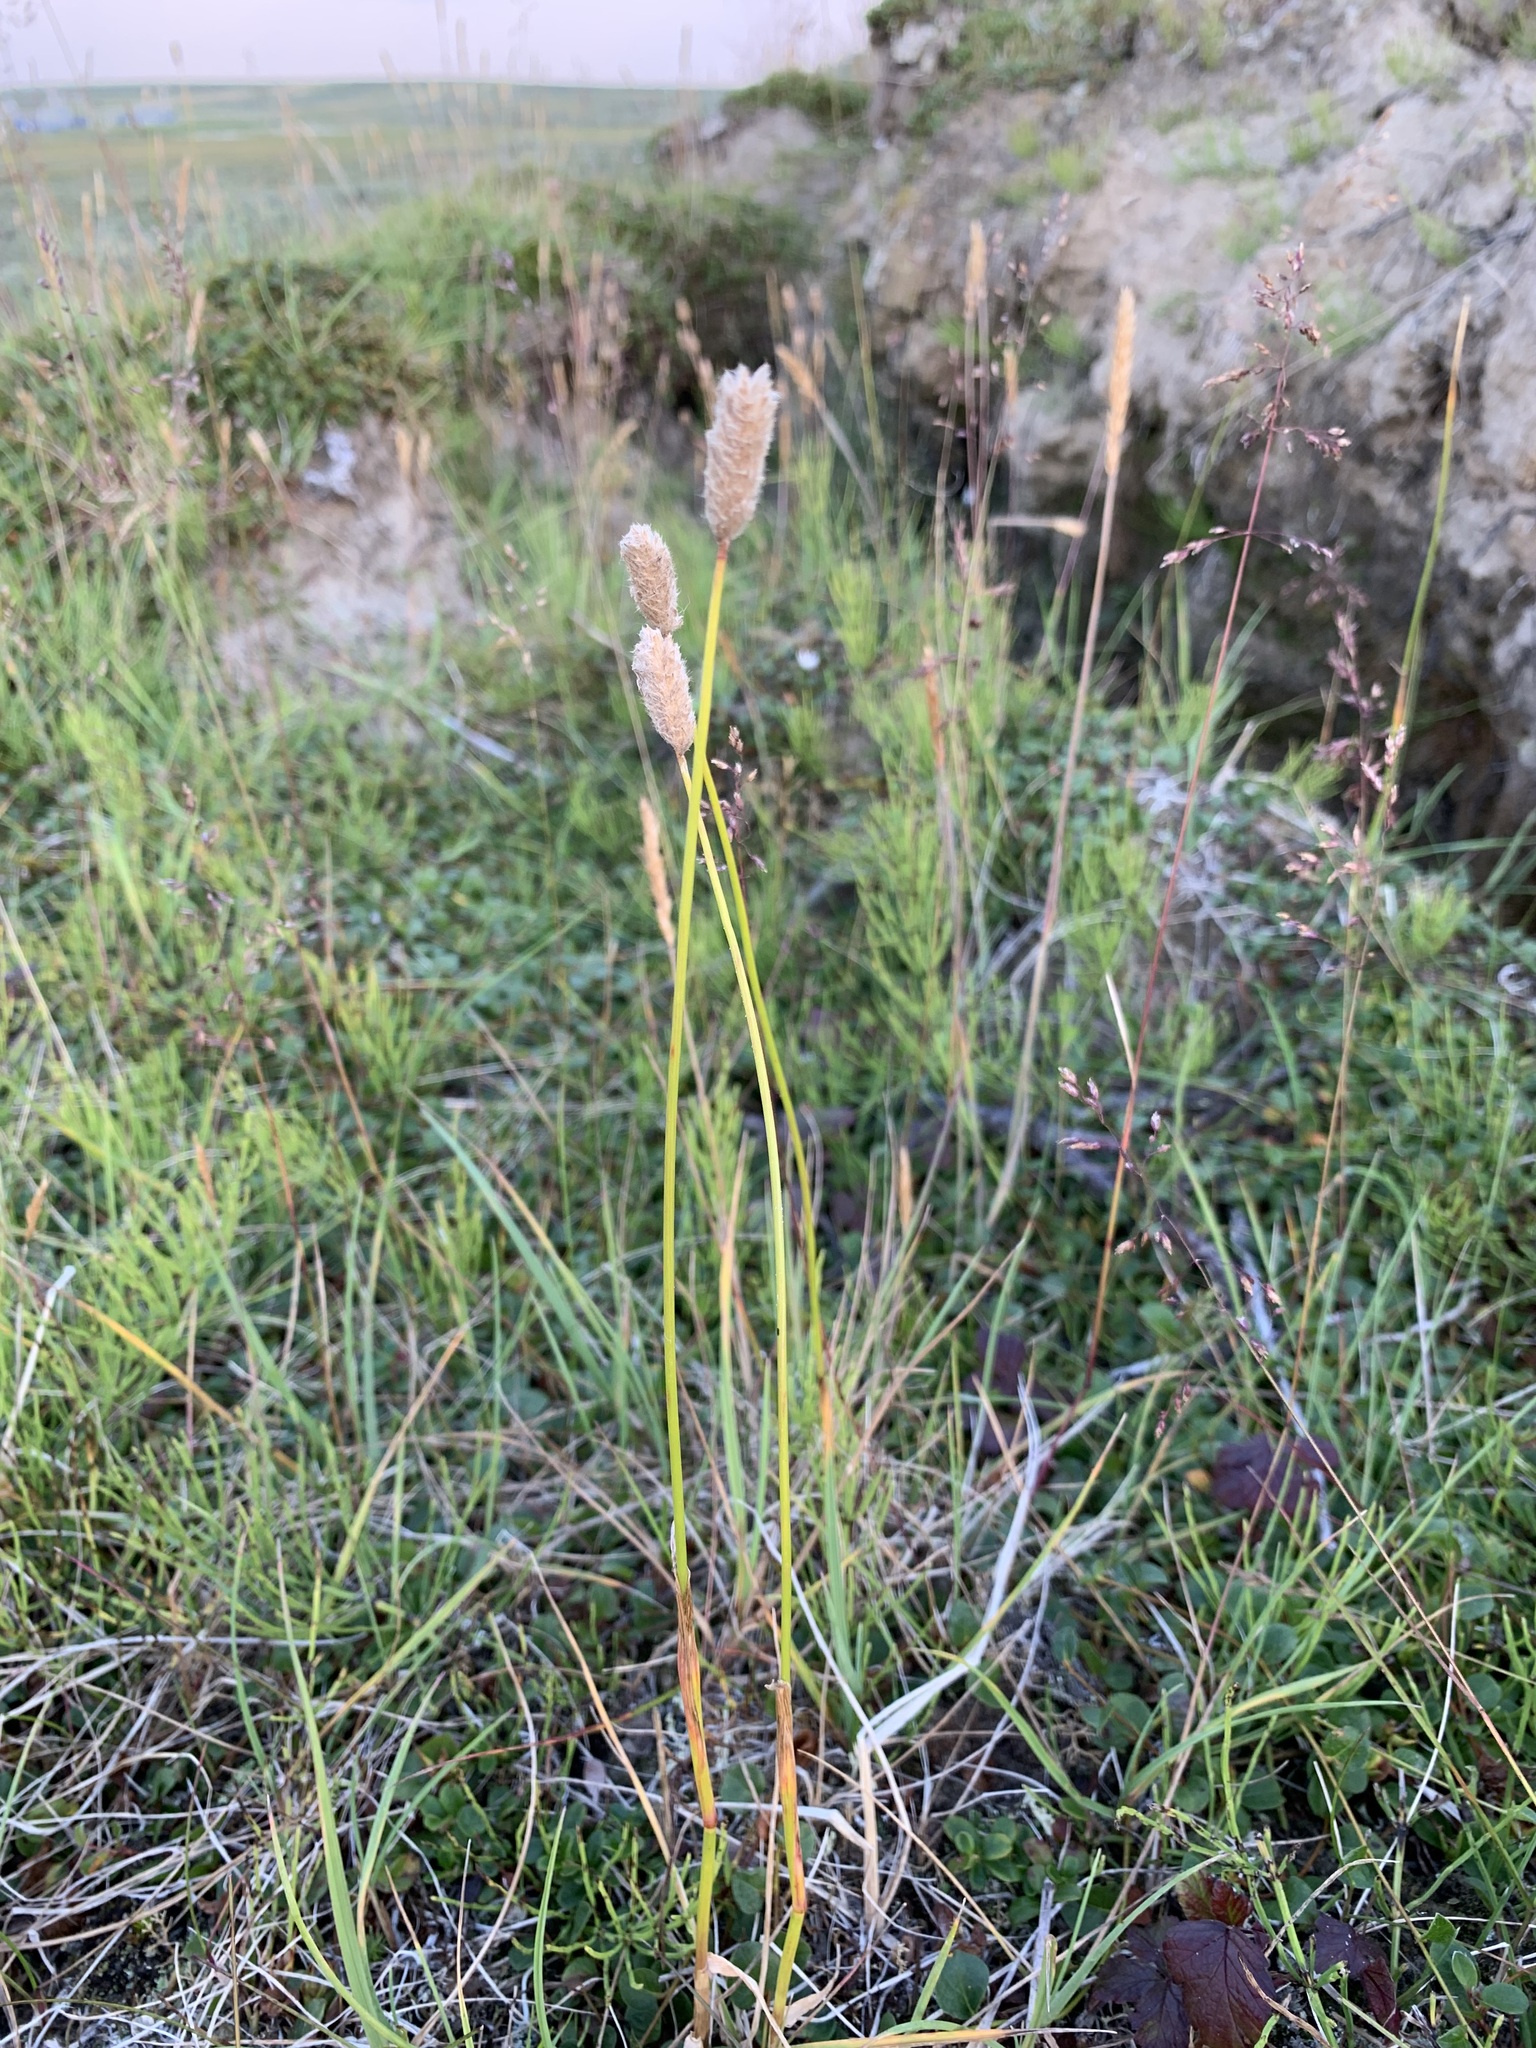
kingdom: Plantae
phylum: Tracheophyta
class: Liliopsida
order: Poales
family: Poaceae
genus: Alopecurus
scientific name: Alopecurus magellanicus
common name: Alpine foxtail
